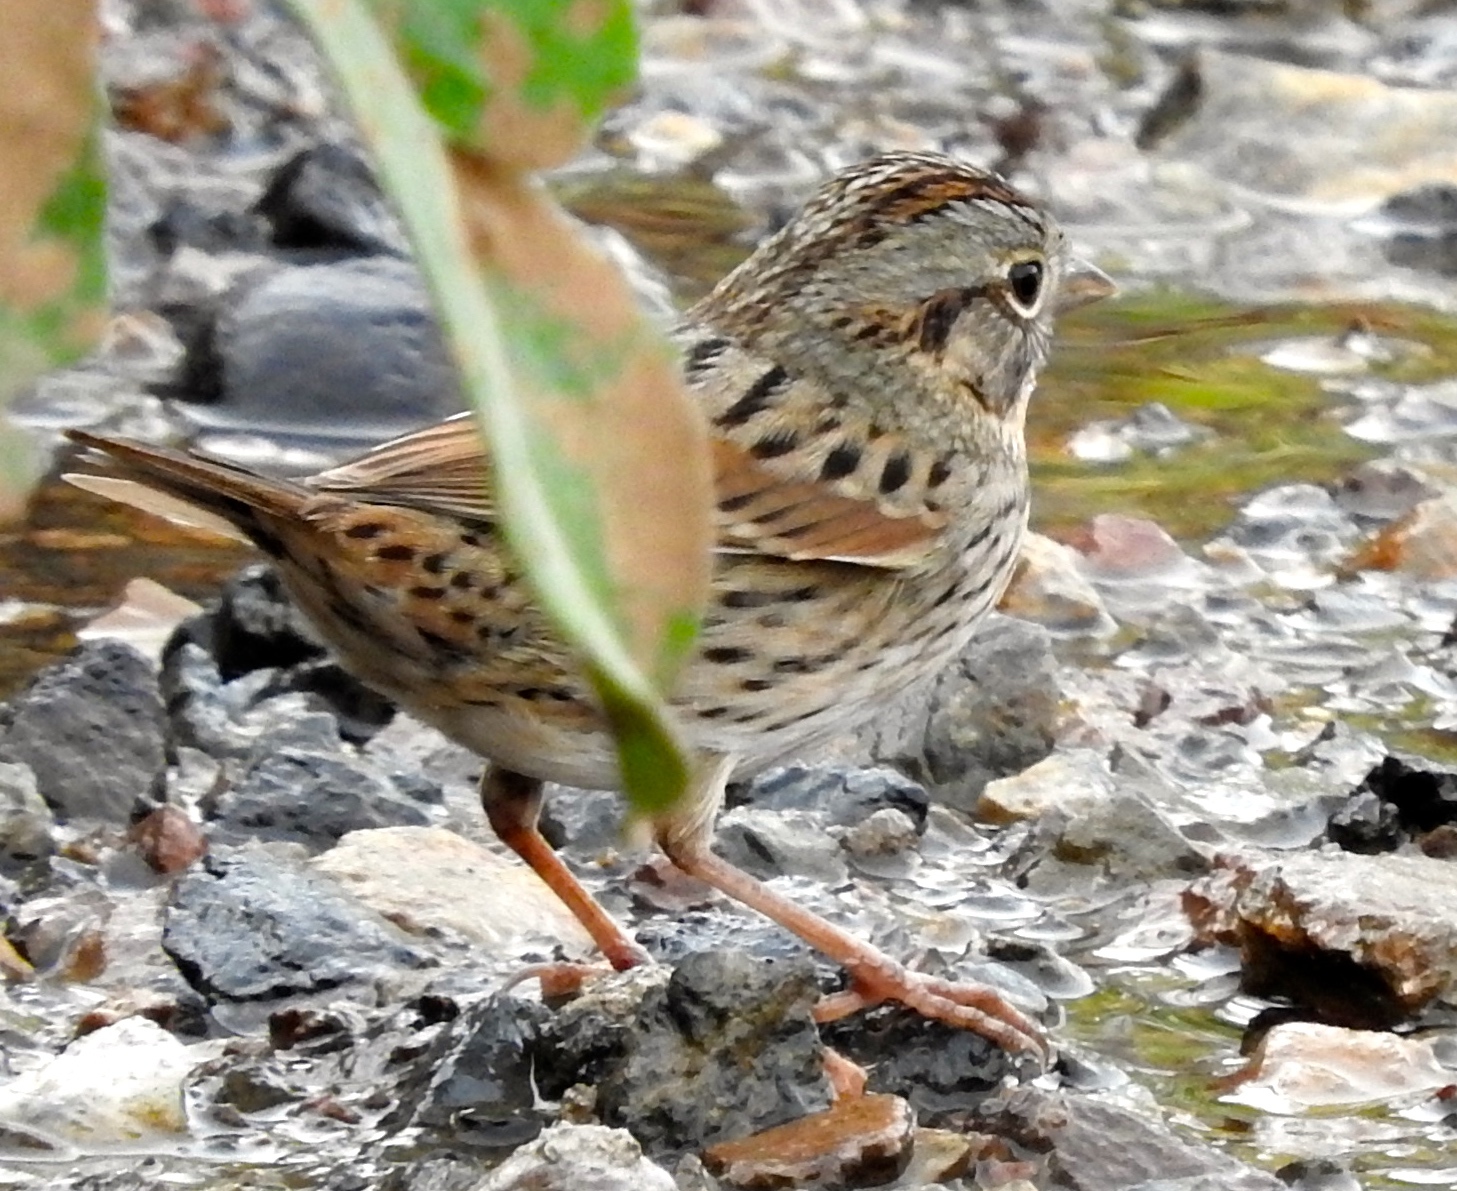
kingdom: Animalia
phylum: Chordata
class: Aves
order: Passeriformes
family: Passerellidae
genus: Melospiza
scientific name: Melospiza lincolnii
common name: Lincoln's sparrow
